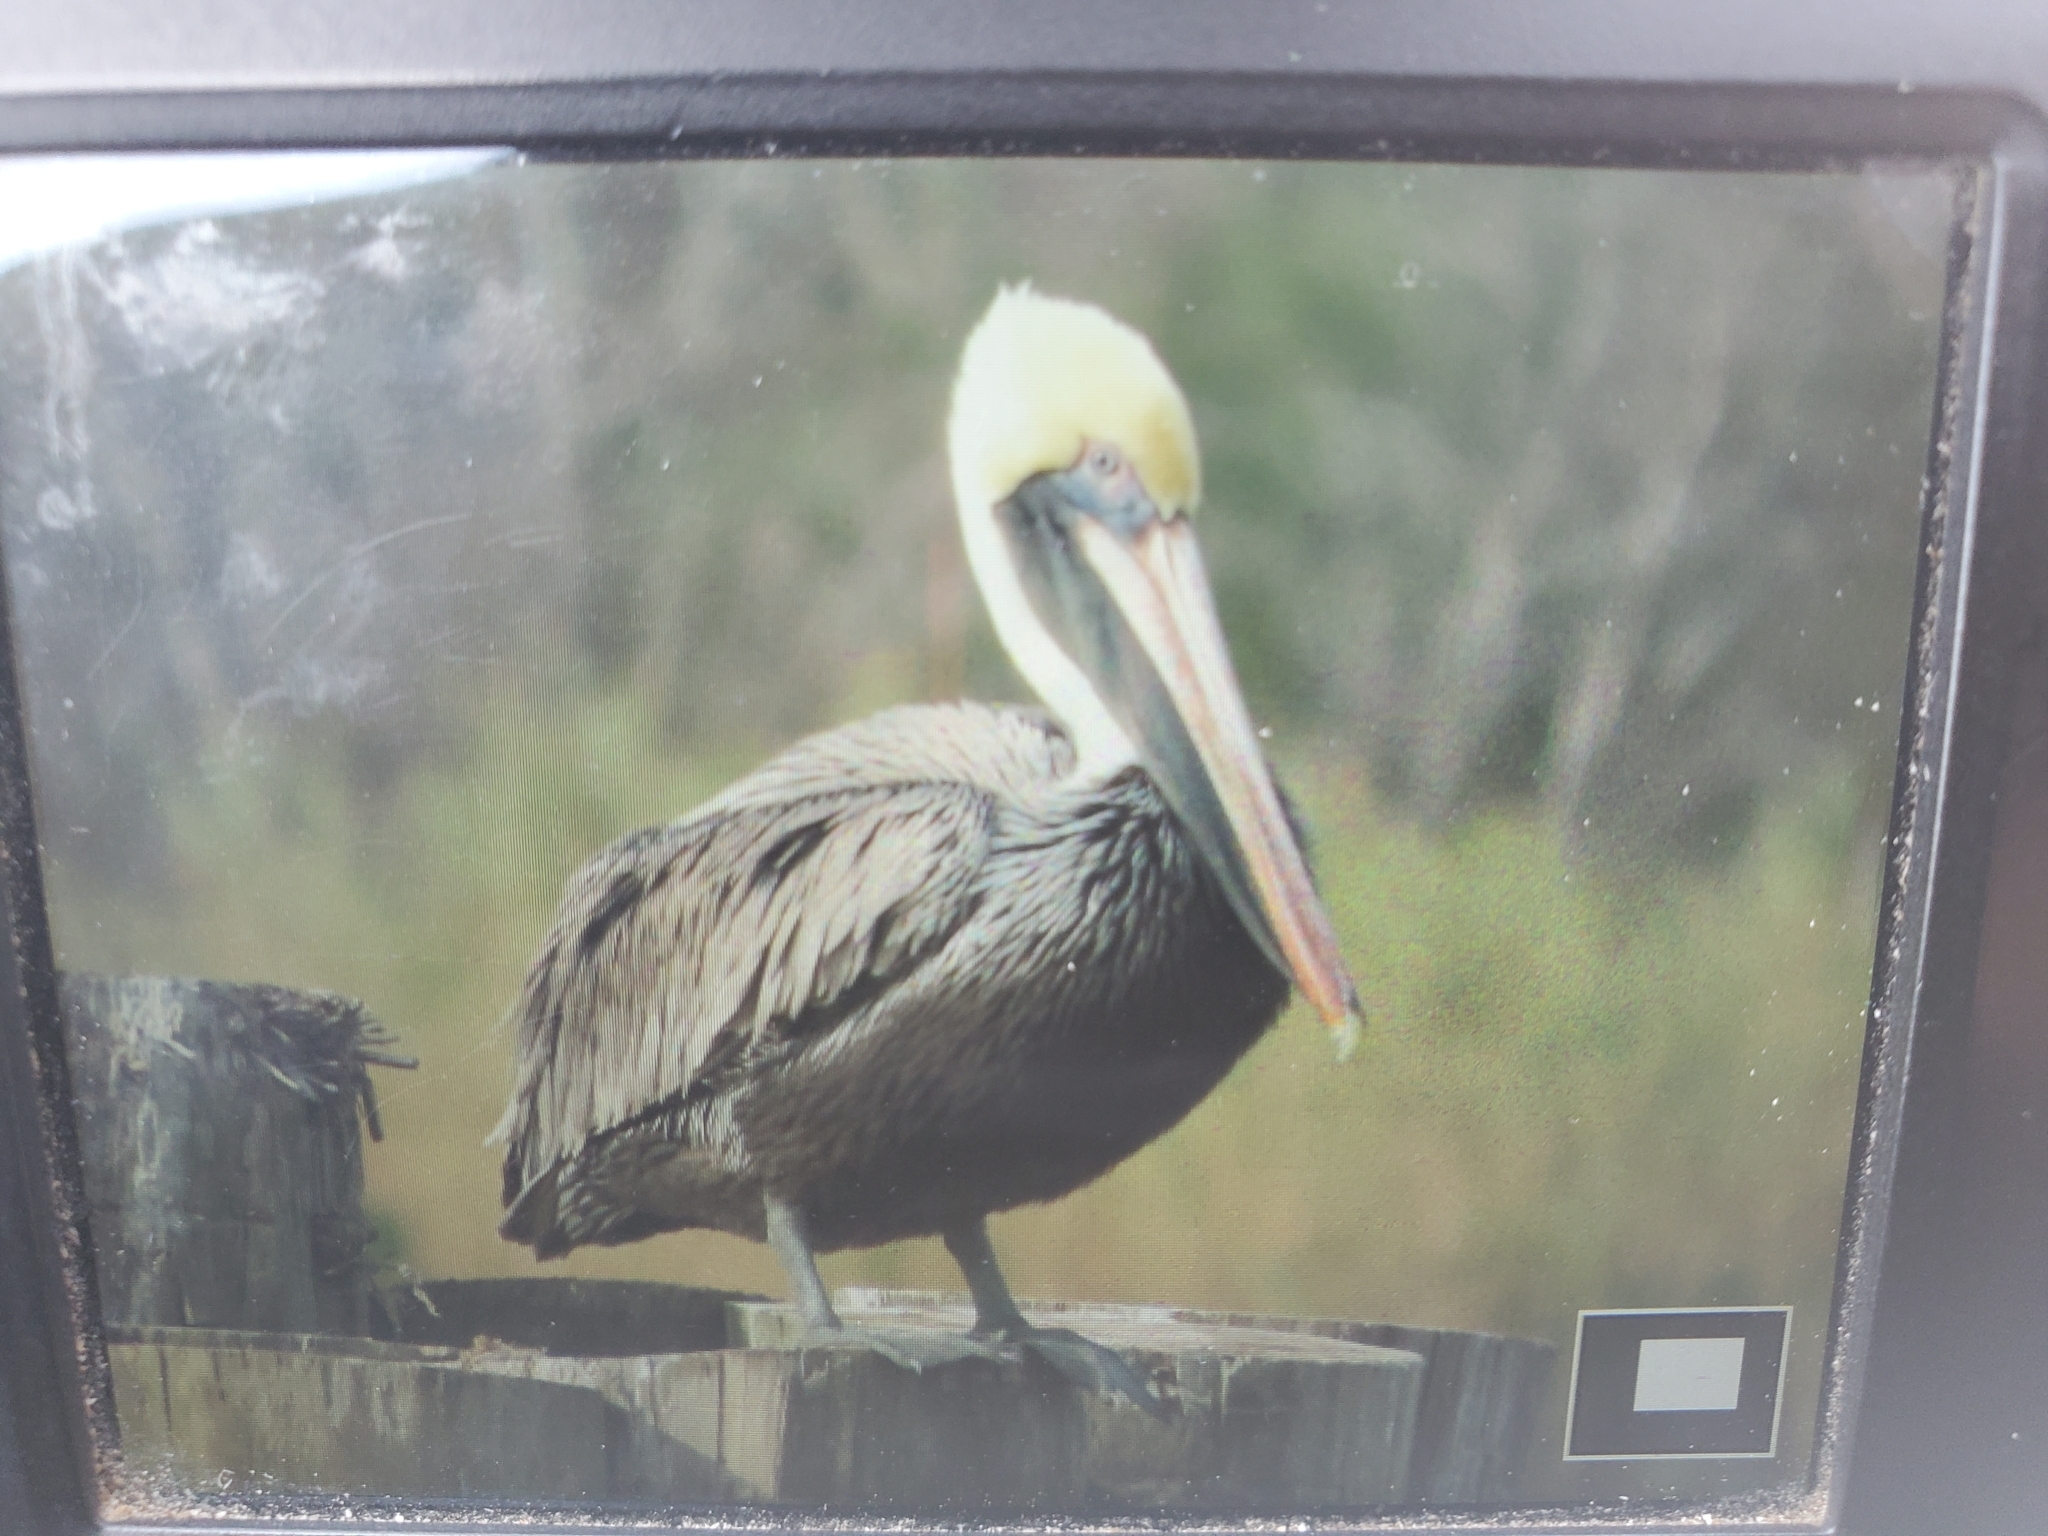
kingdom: Animalia
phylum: Chordata
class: Aves
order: Pelecaniformes
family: Pelecanidae
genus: Pelecanus
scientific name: Pelecanus occidentalis
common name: Brown pelican
